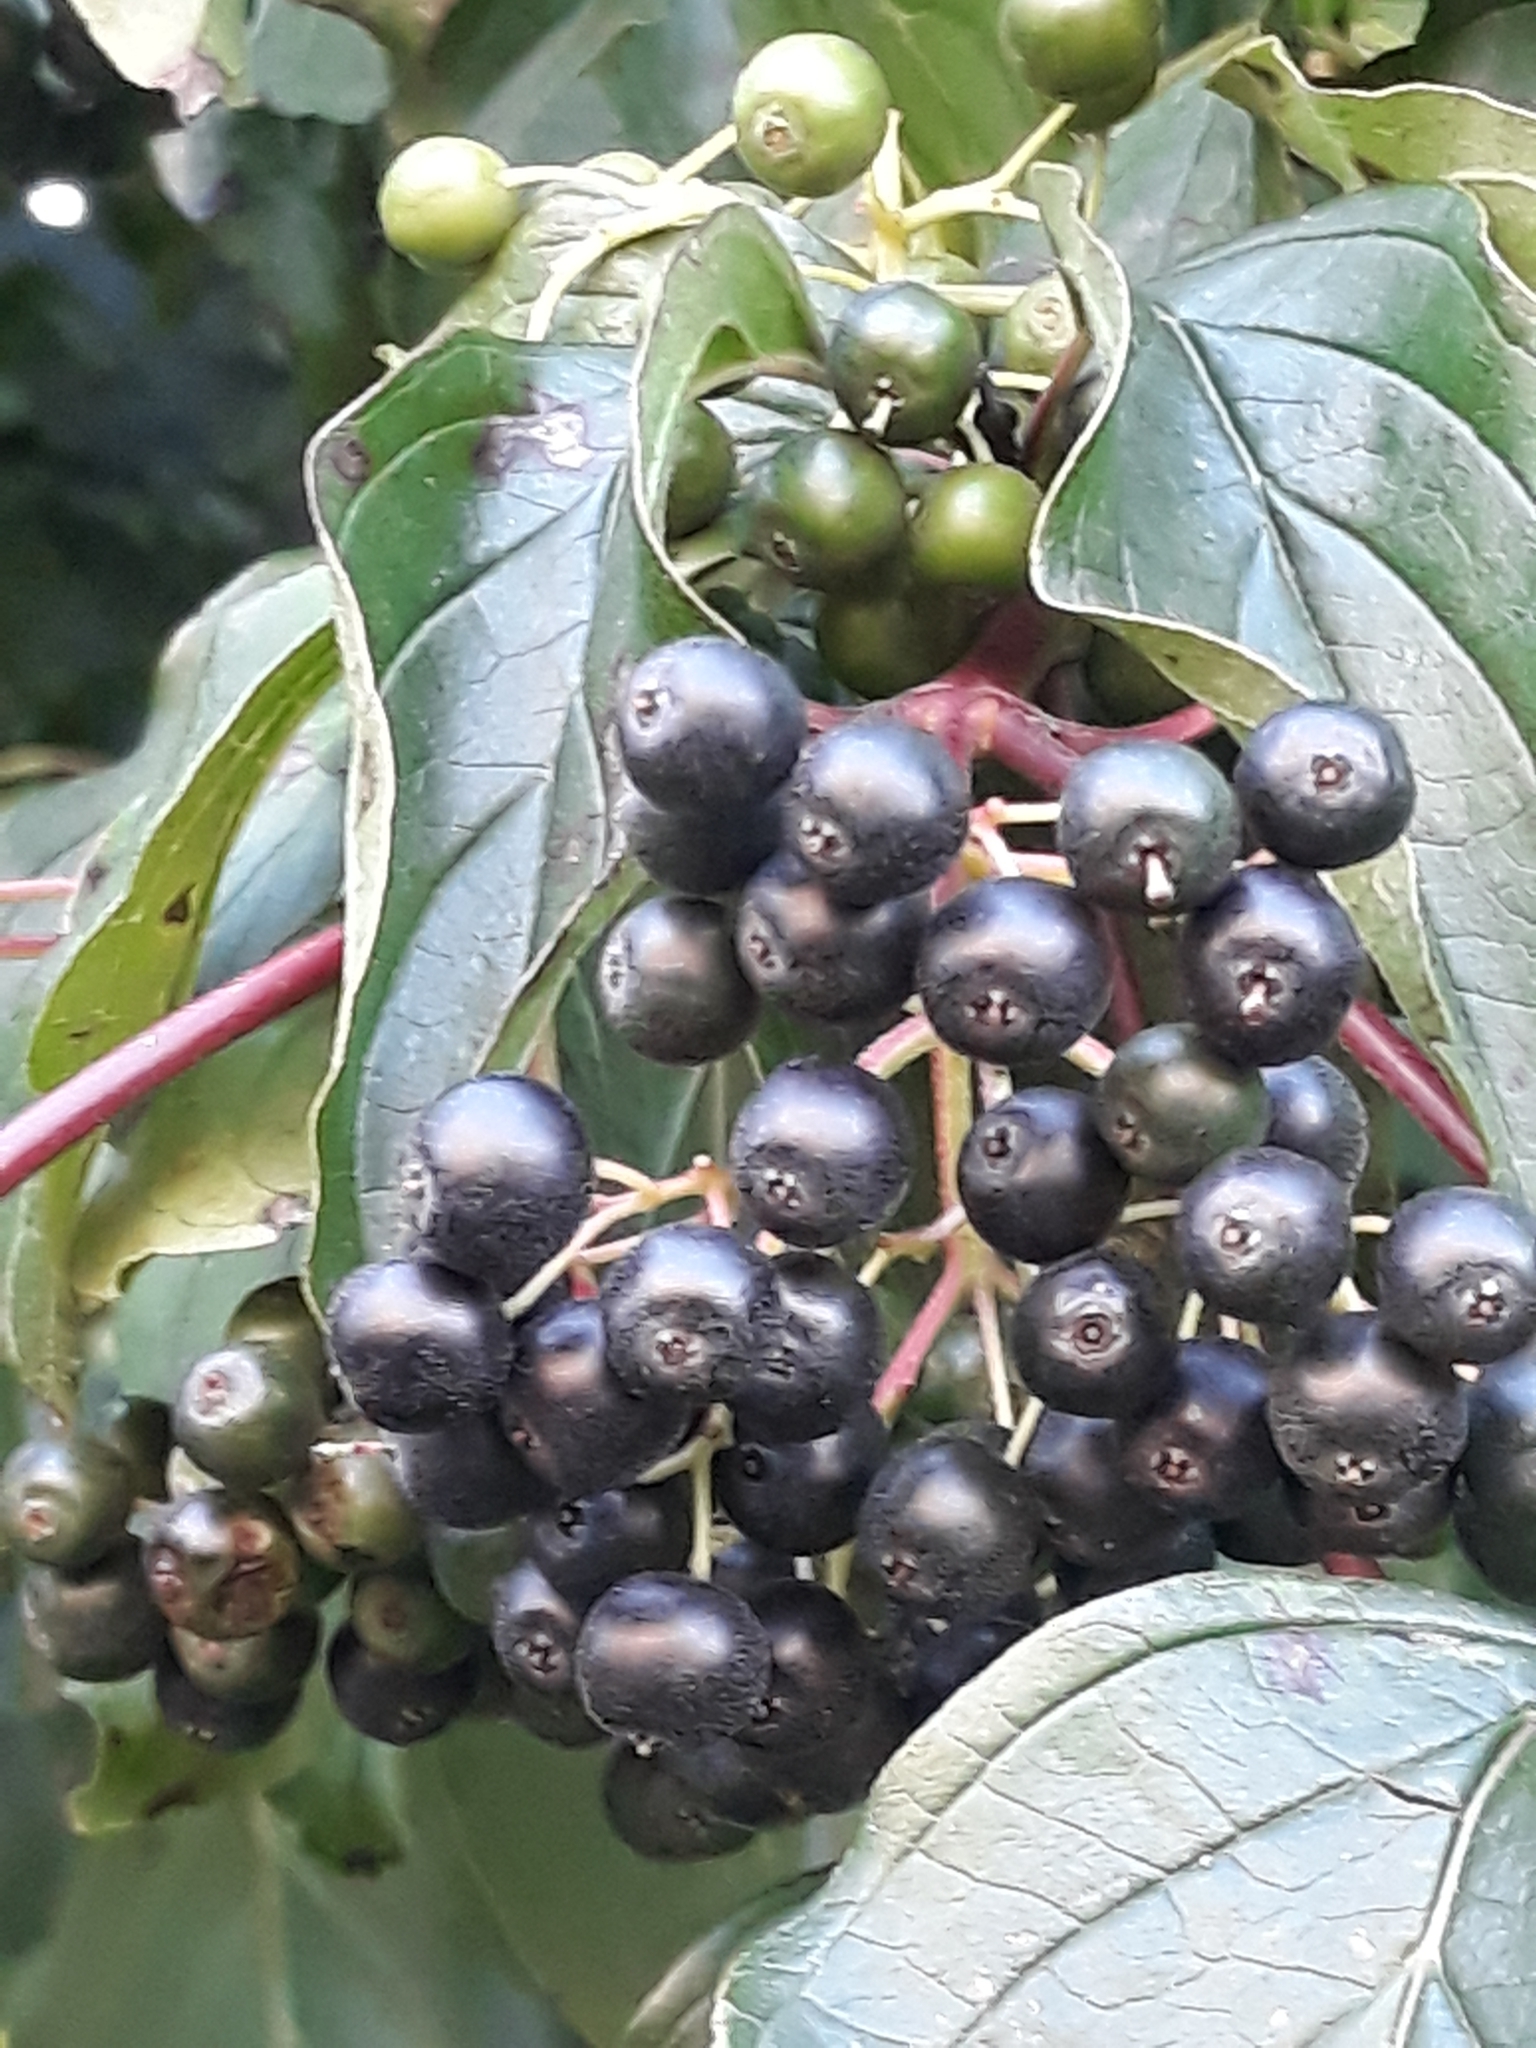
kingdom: Plantae
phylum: Tracheophyta
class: Magnoliopsida
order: Cornales
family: Cornaceae
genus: Cornus
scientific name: Cornus sanguinea
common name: Dogwood
